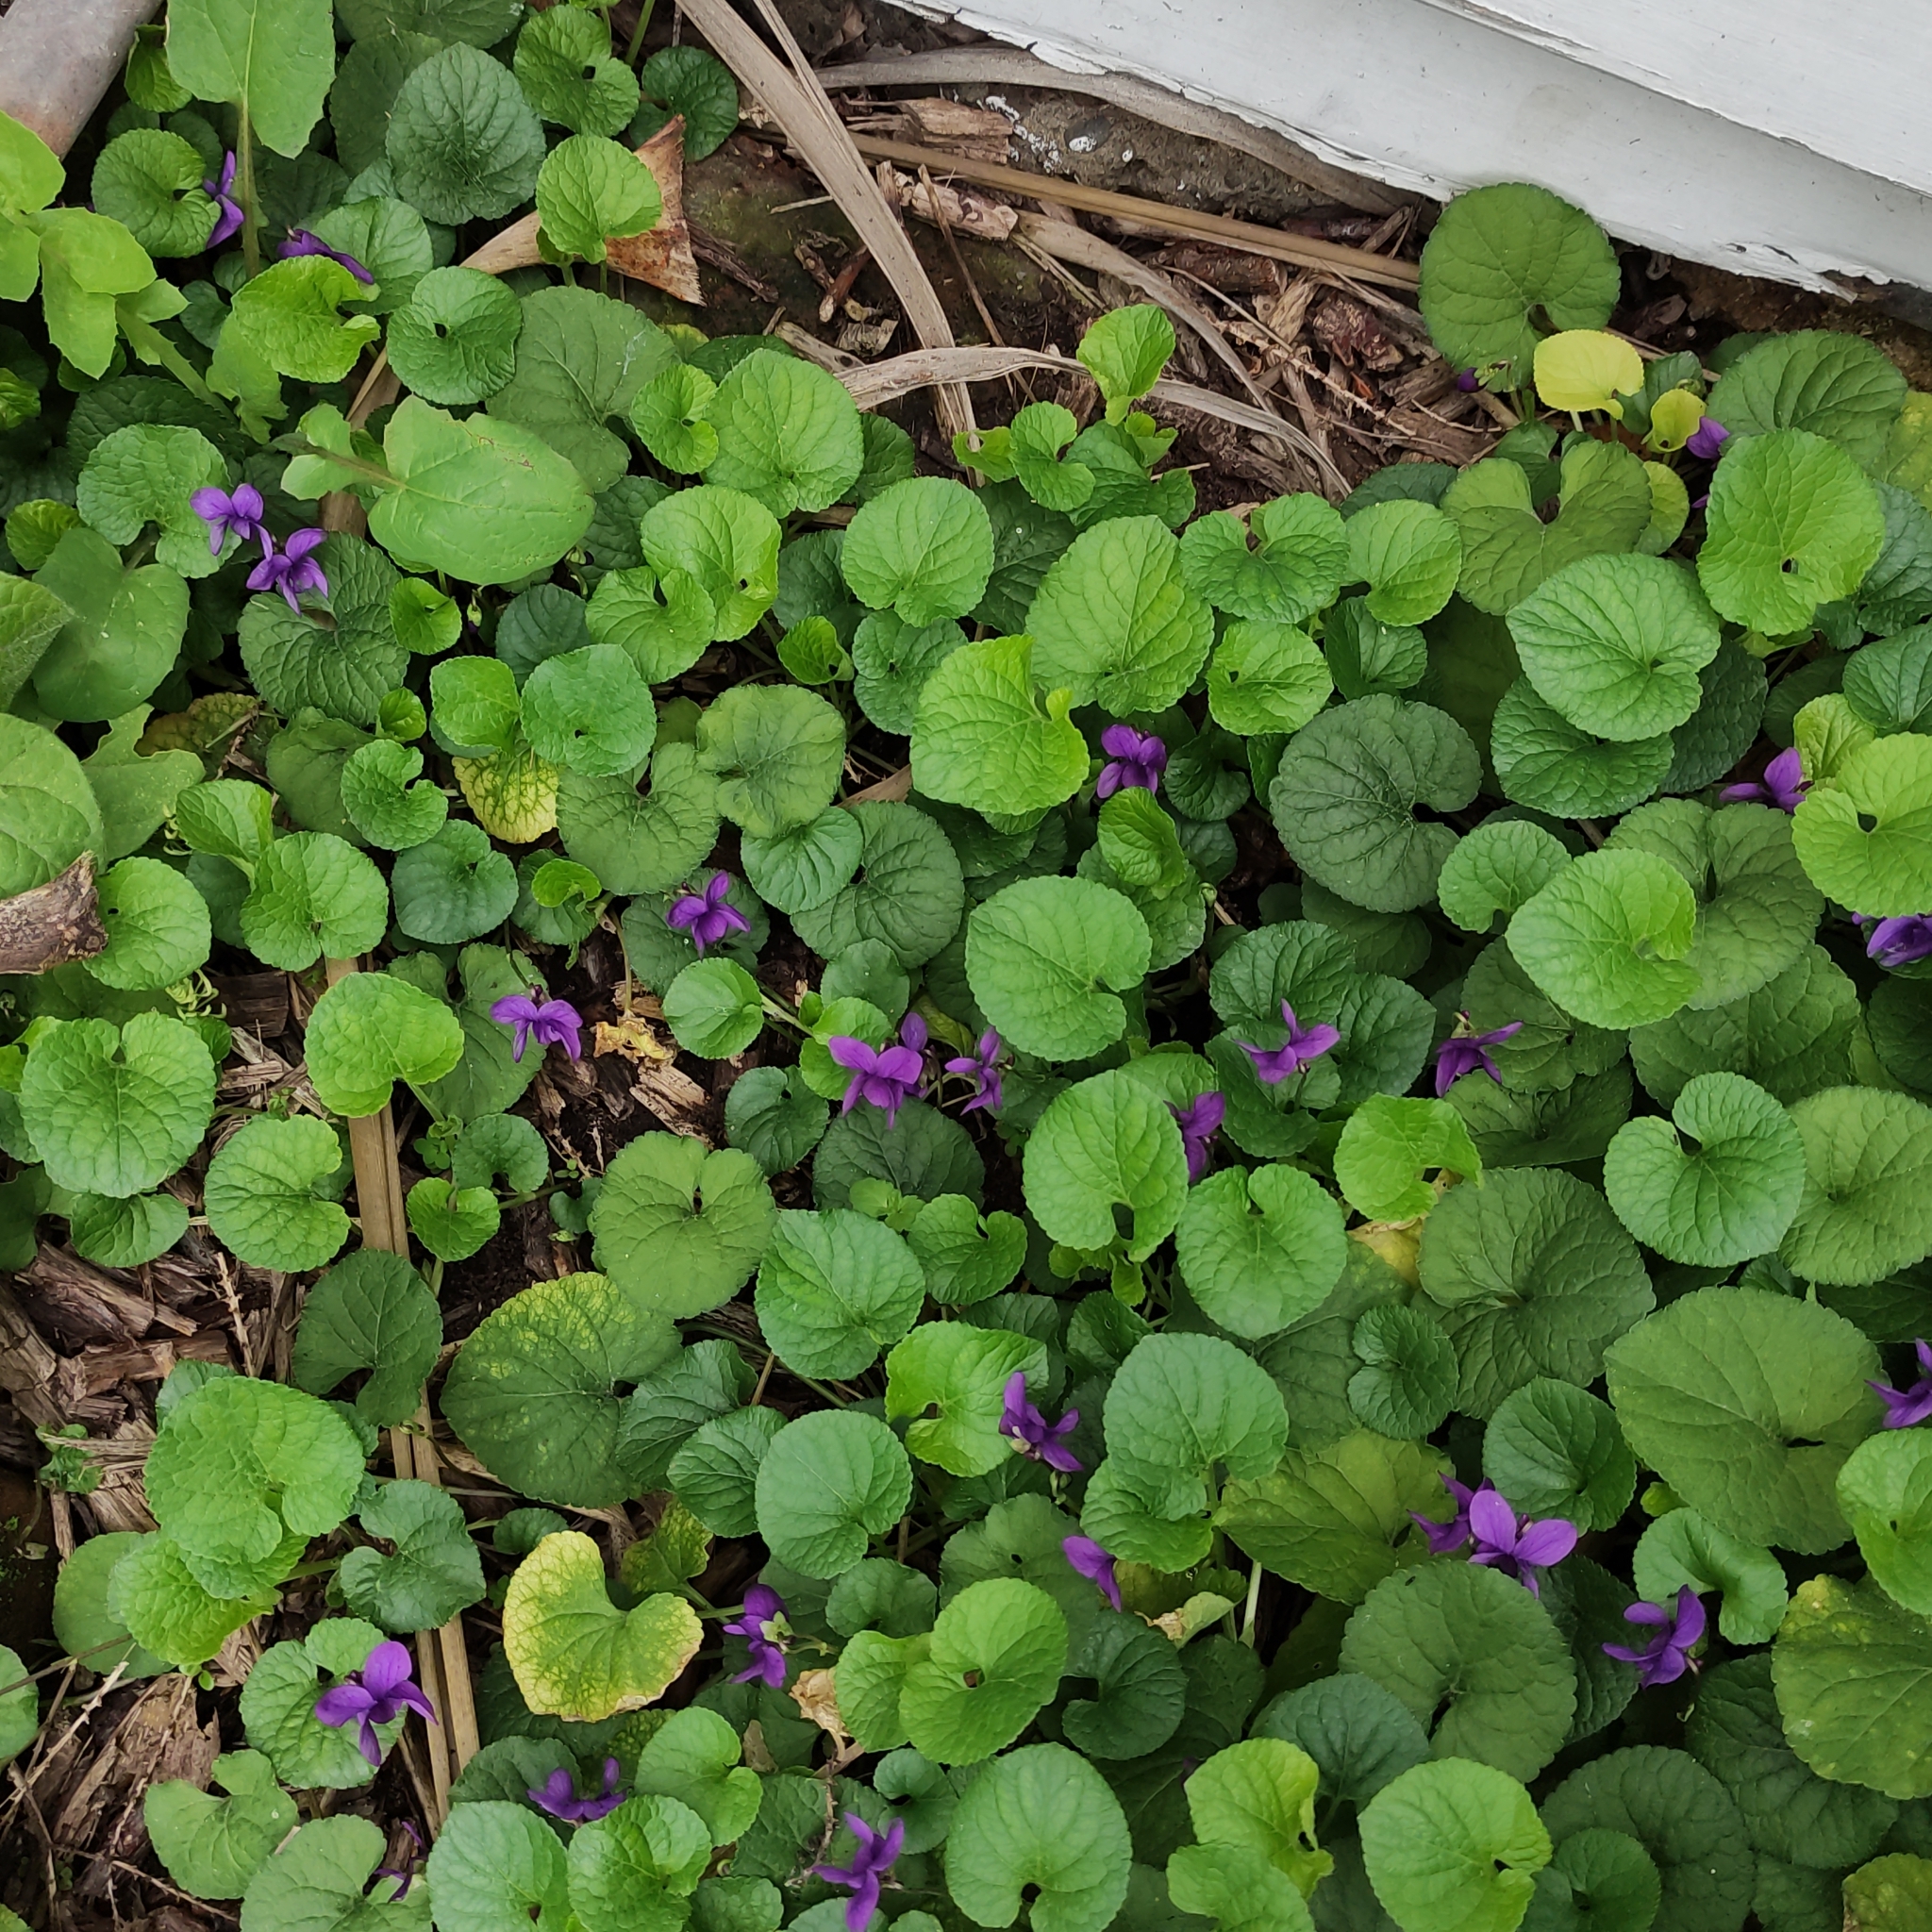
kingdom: Plantae
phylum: Tracheophyta
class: Magnoliopsida
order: Malpighiales
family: Violaceae
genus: Viola
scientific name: Viola odorata
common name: Sweet violet
